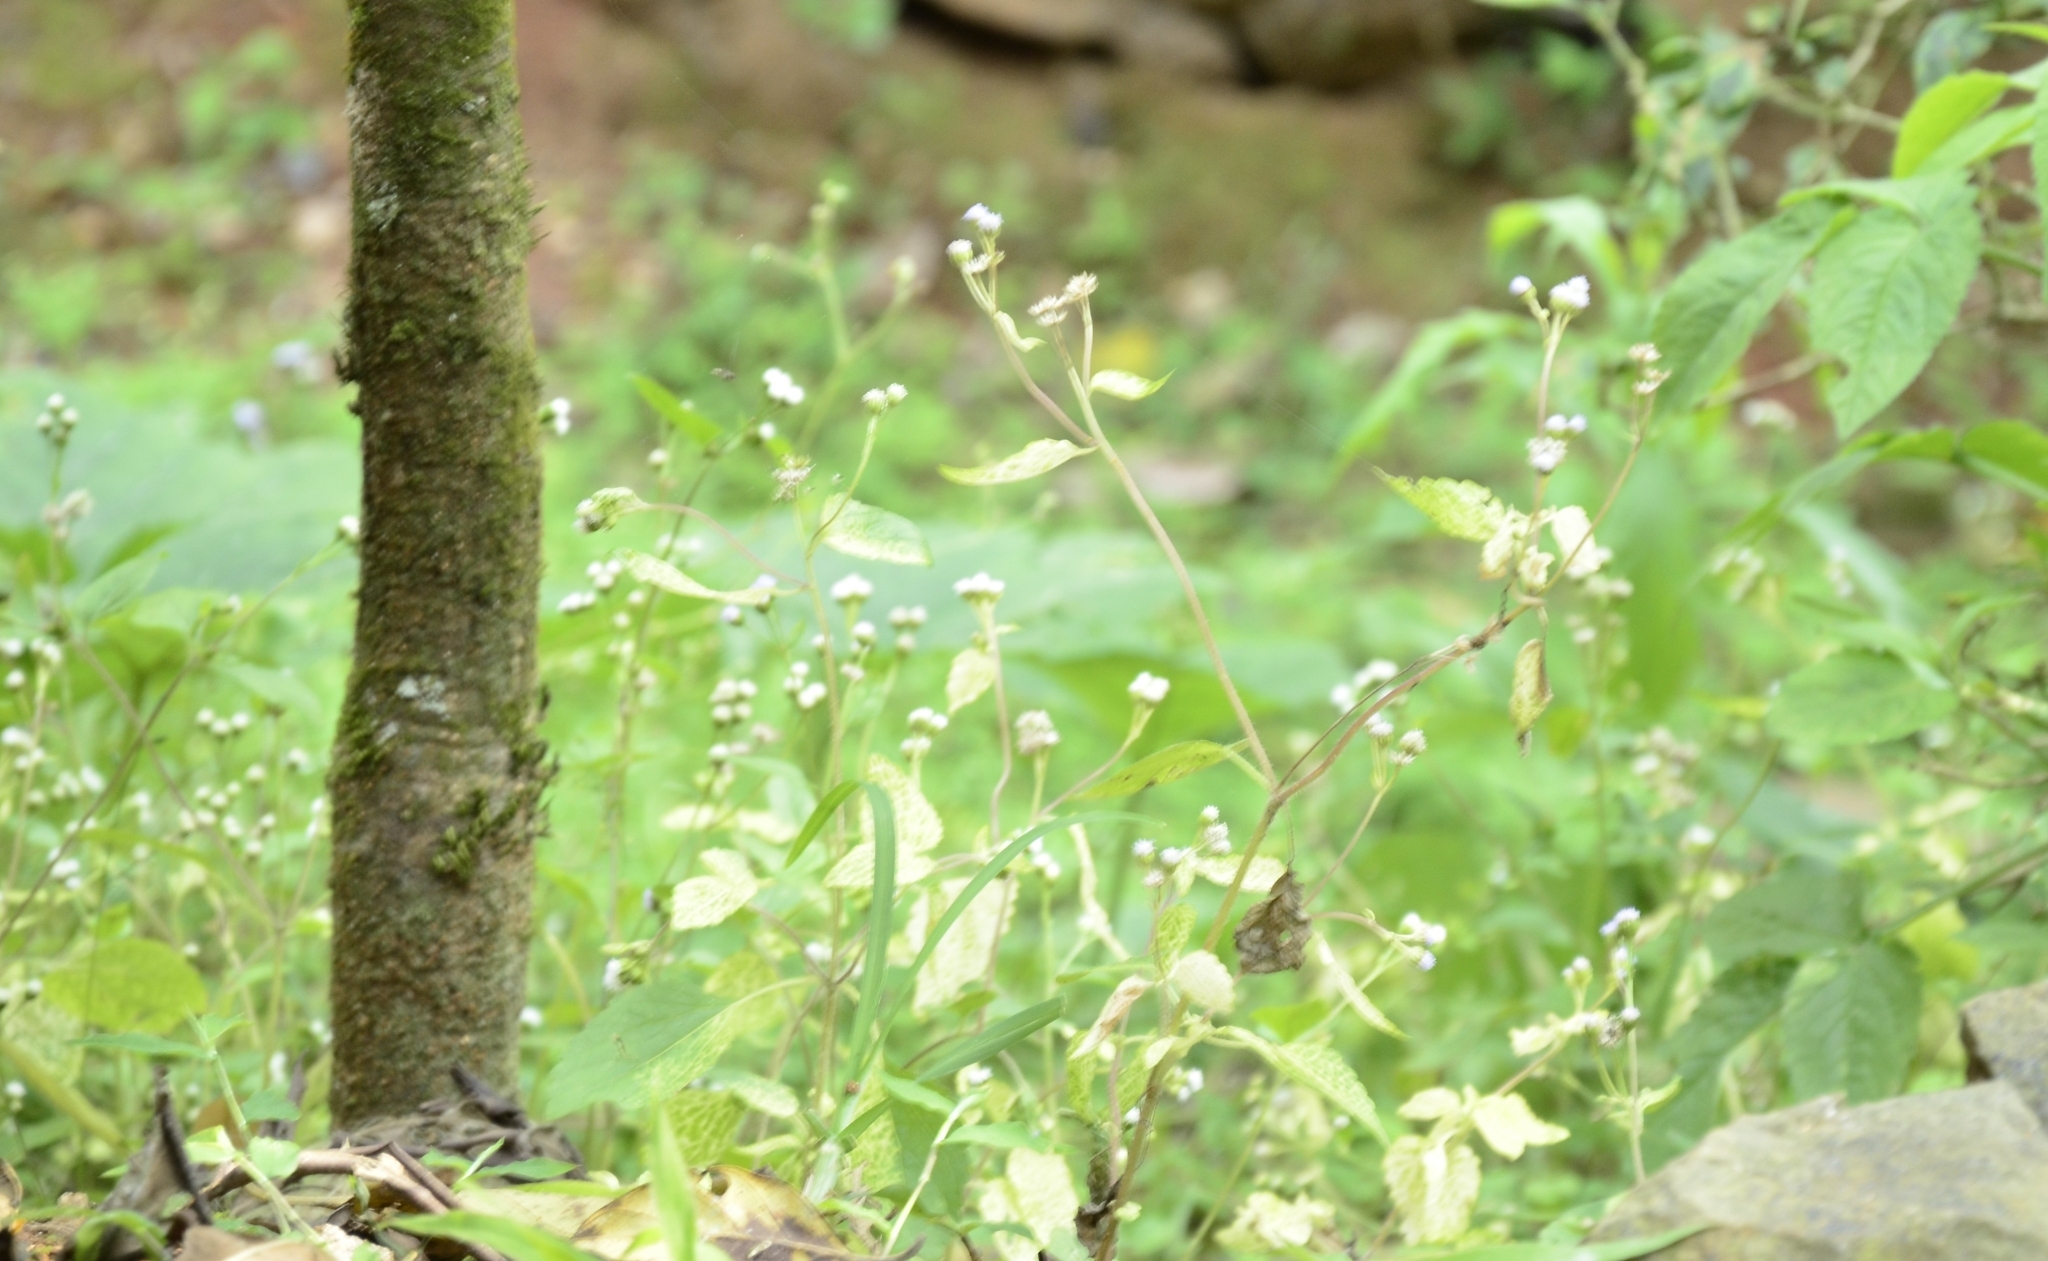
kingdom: Plantae
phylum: Tracheophyta
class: Magnoliopsida
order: Asterales
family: Asteraceae
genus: Ageratum
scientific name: Ageratum conyzoides
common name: Tropical whiteweed
